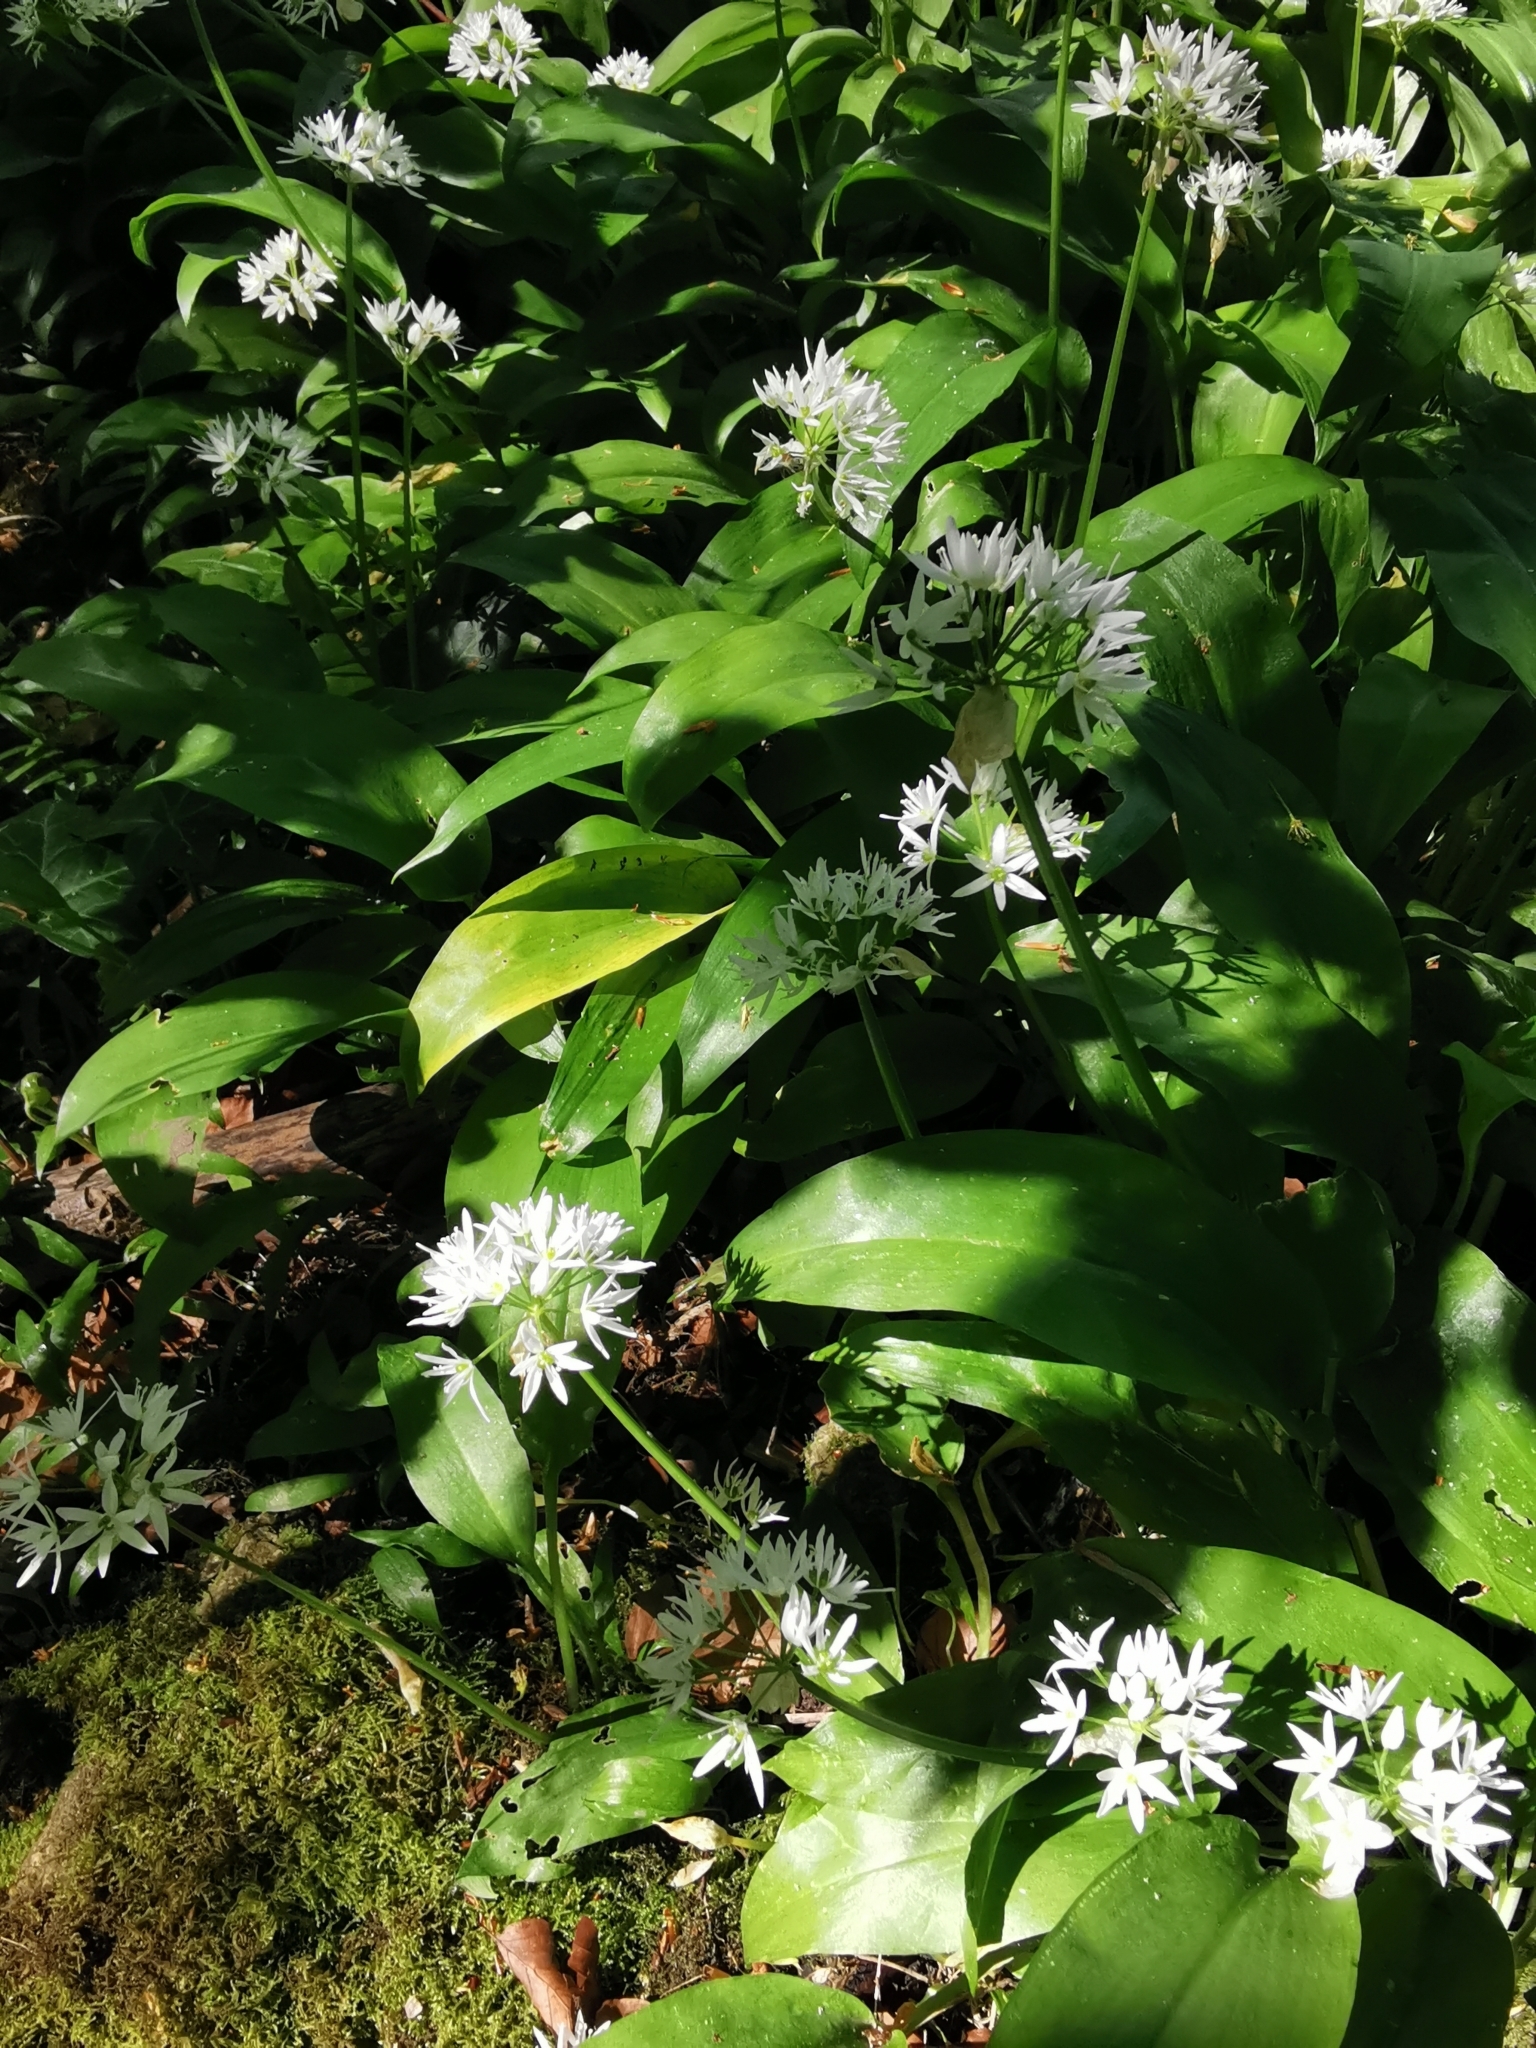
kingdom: Plantae
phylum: Tracheophyta
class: Liliopsida
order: Asparagales
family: Amaryllidaceae
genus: Allium
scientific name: Allium ursinum
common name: Ramsons
